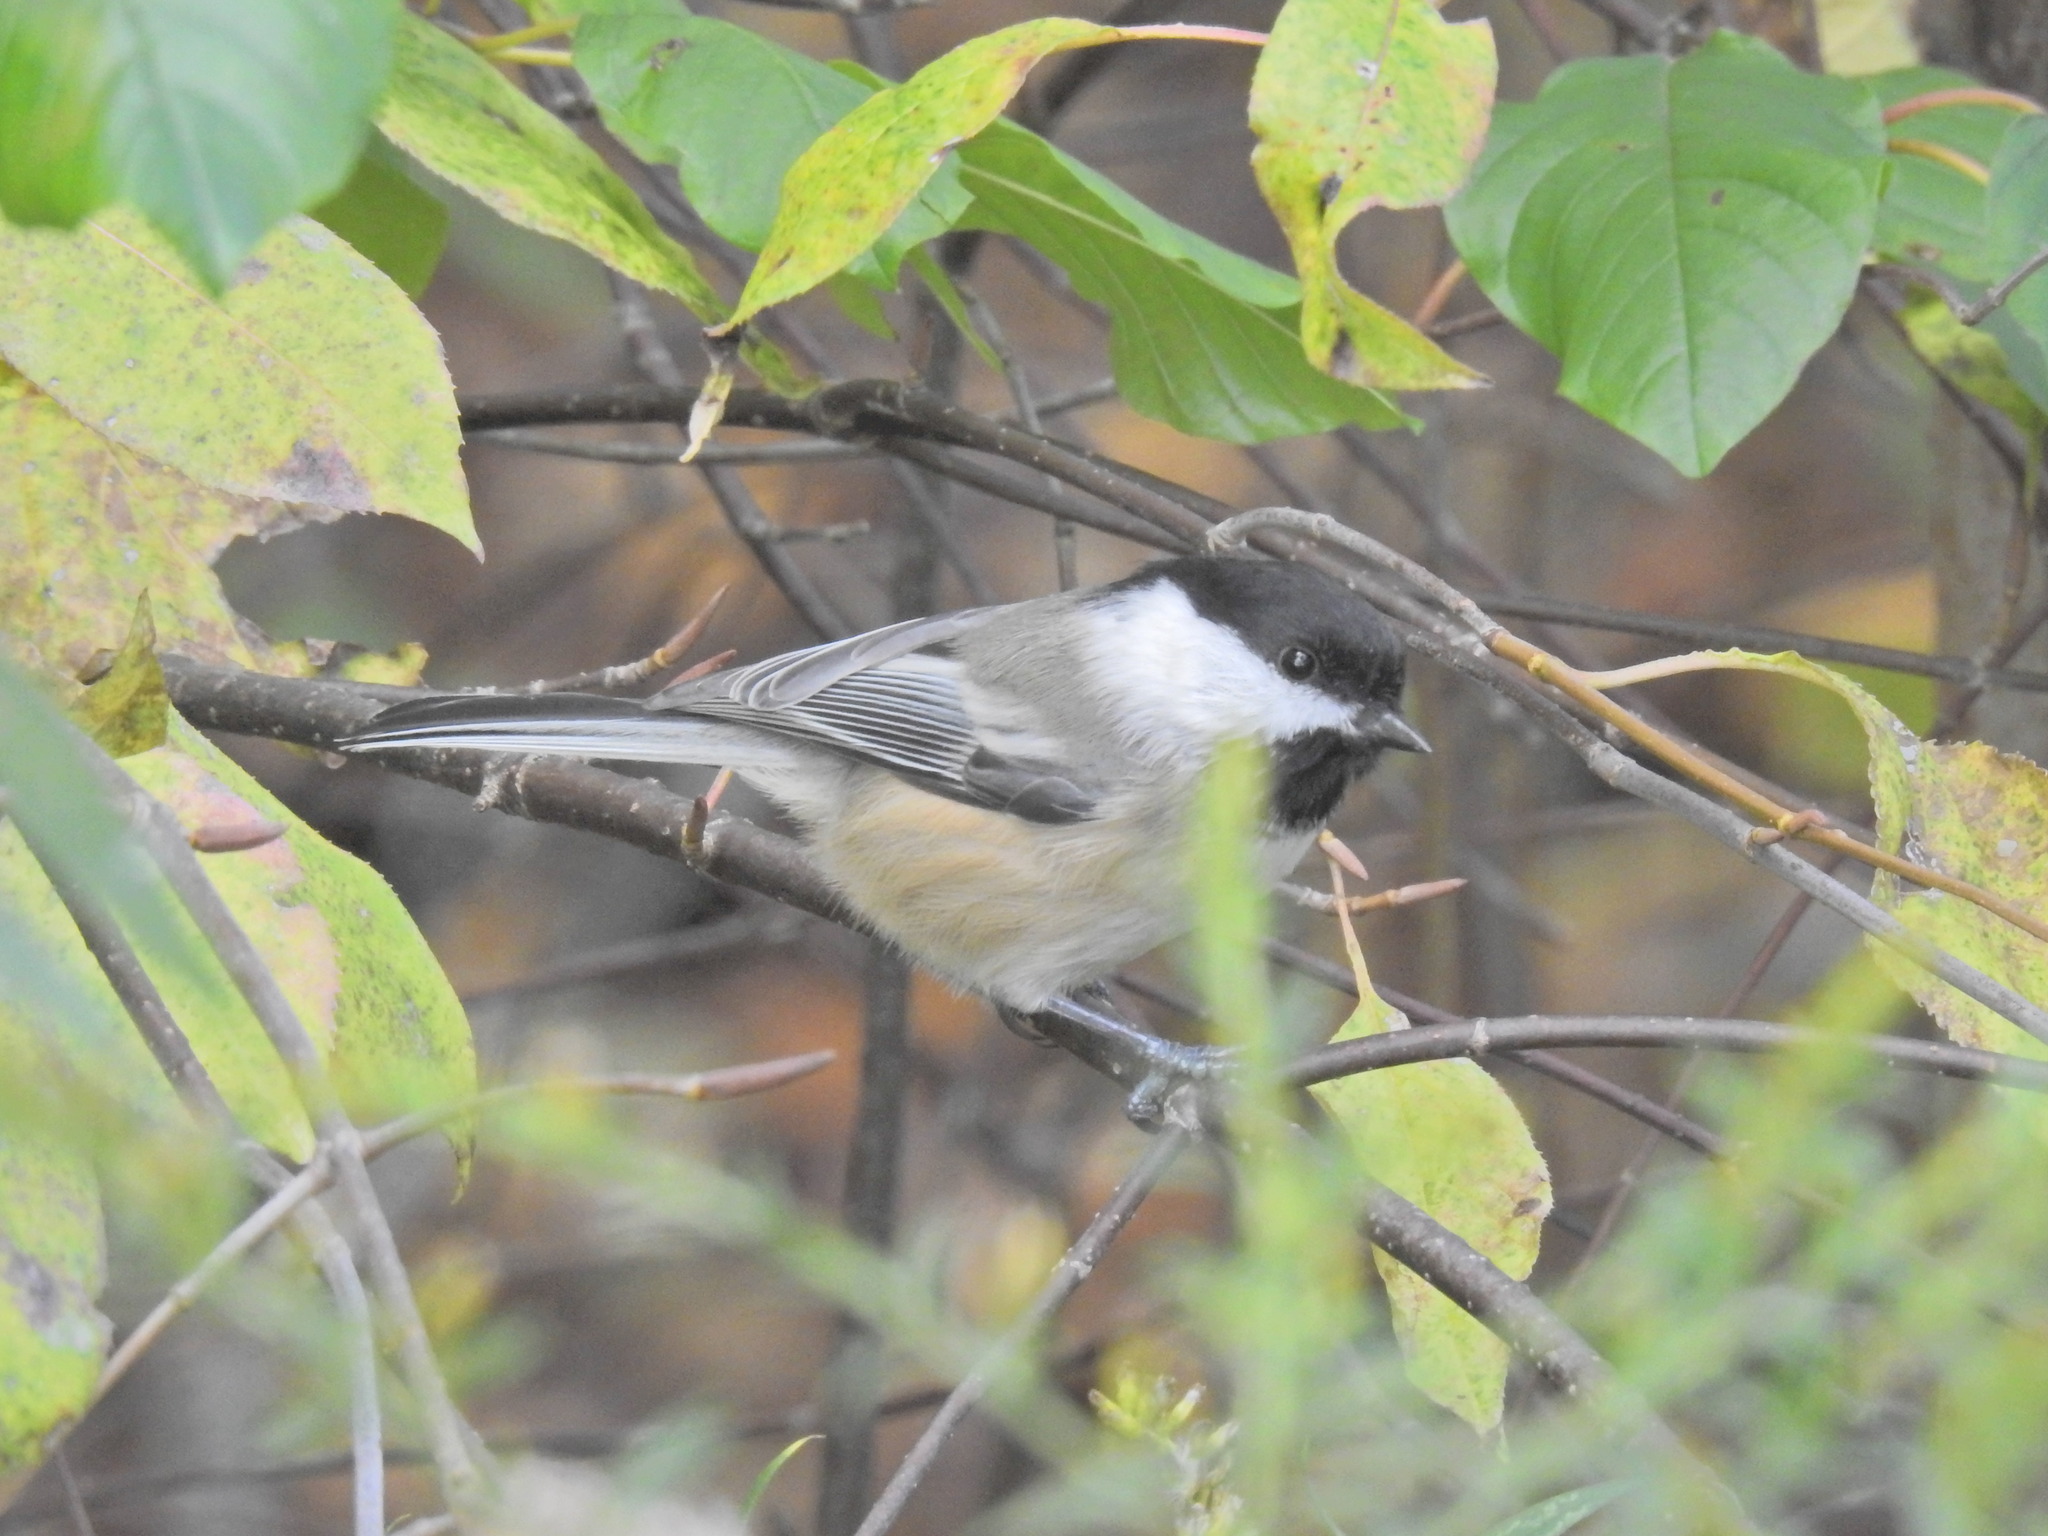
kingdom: Animalia
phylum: Chordata
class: Aves
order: Passeriformes
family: Paridae
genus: Poecile
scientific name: Poecile atricapillus
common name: Black-capped chickadee
